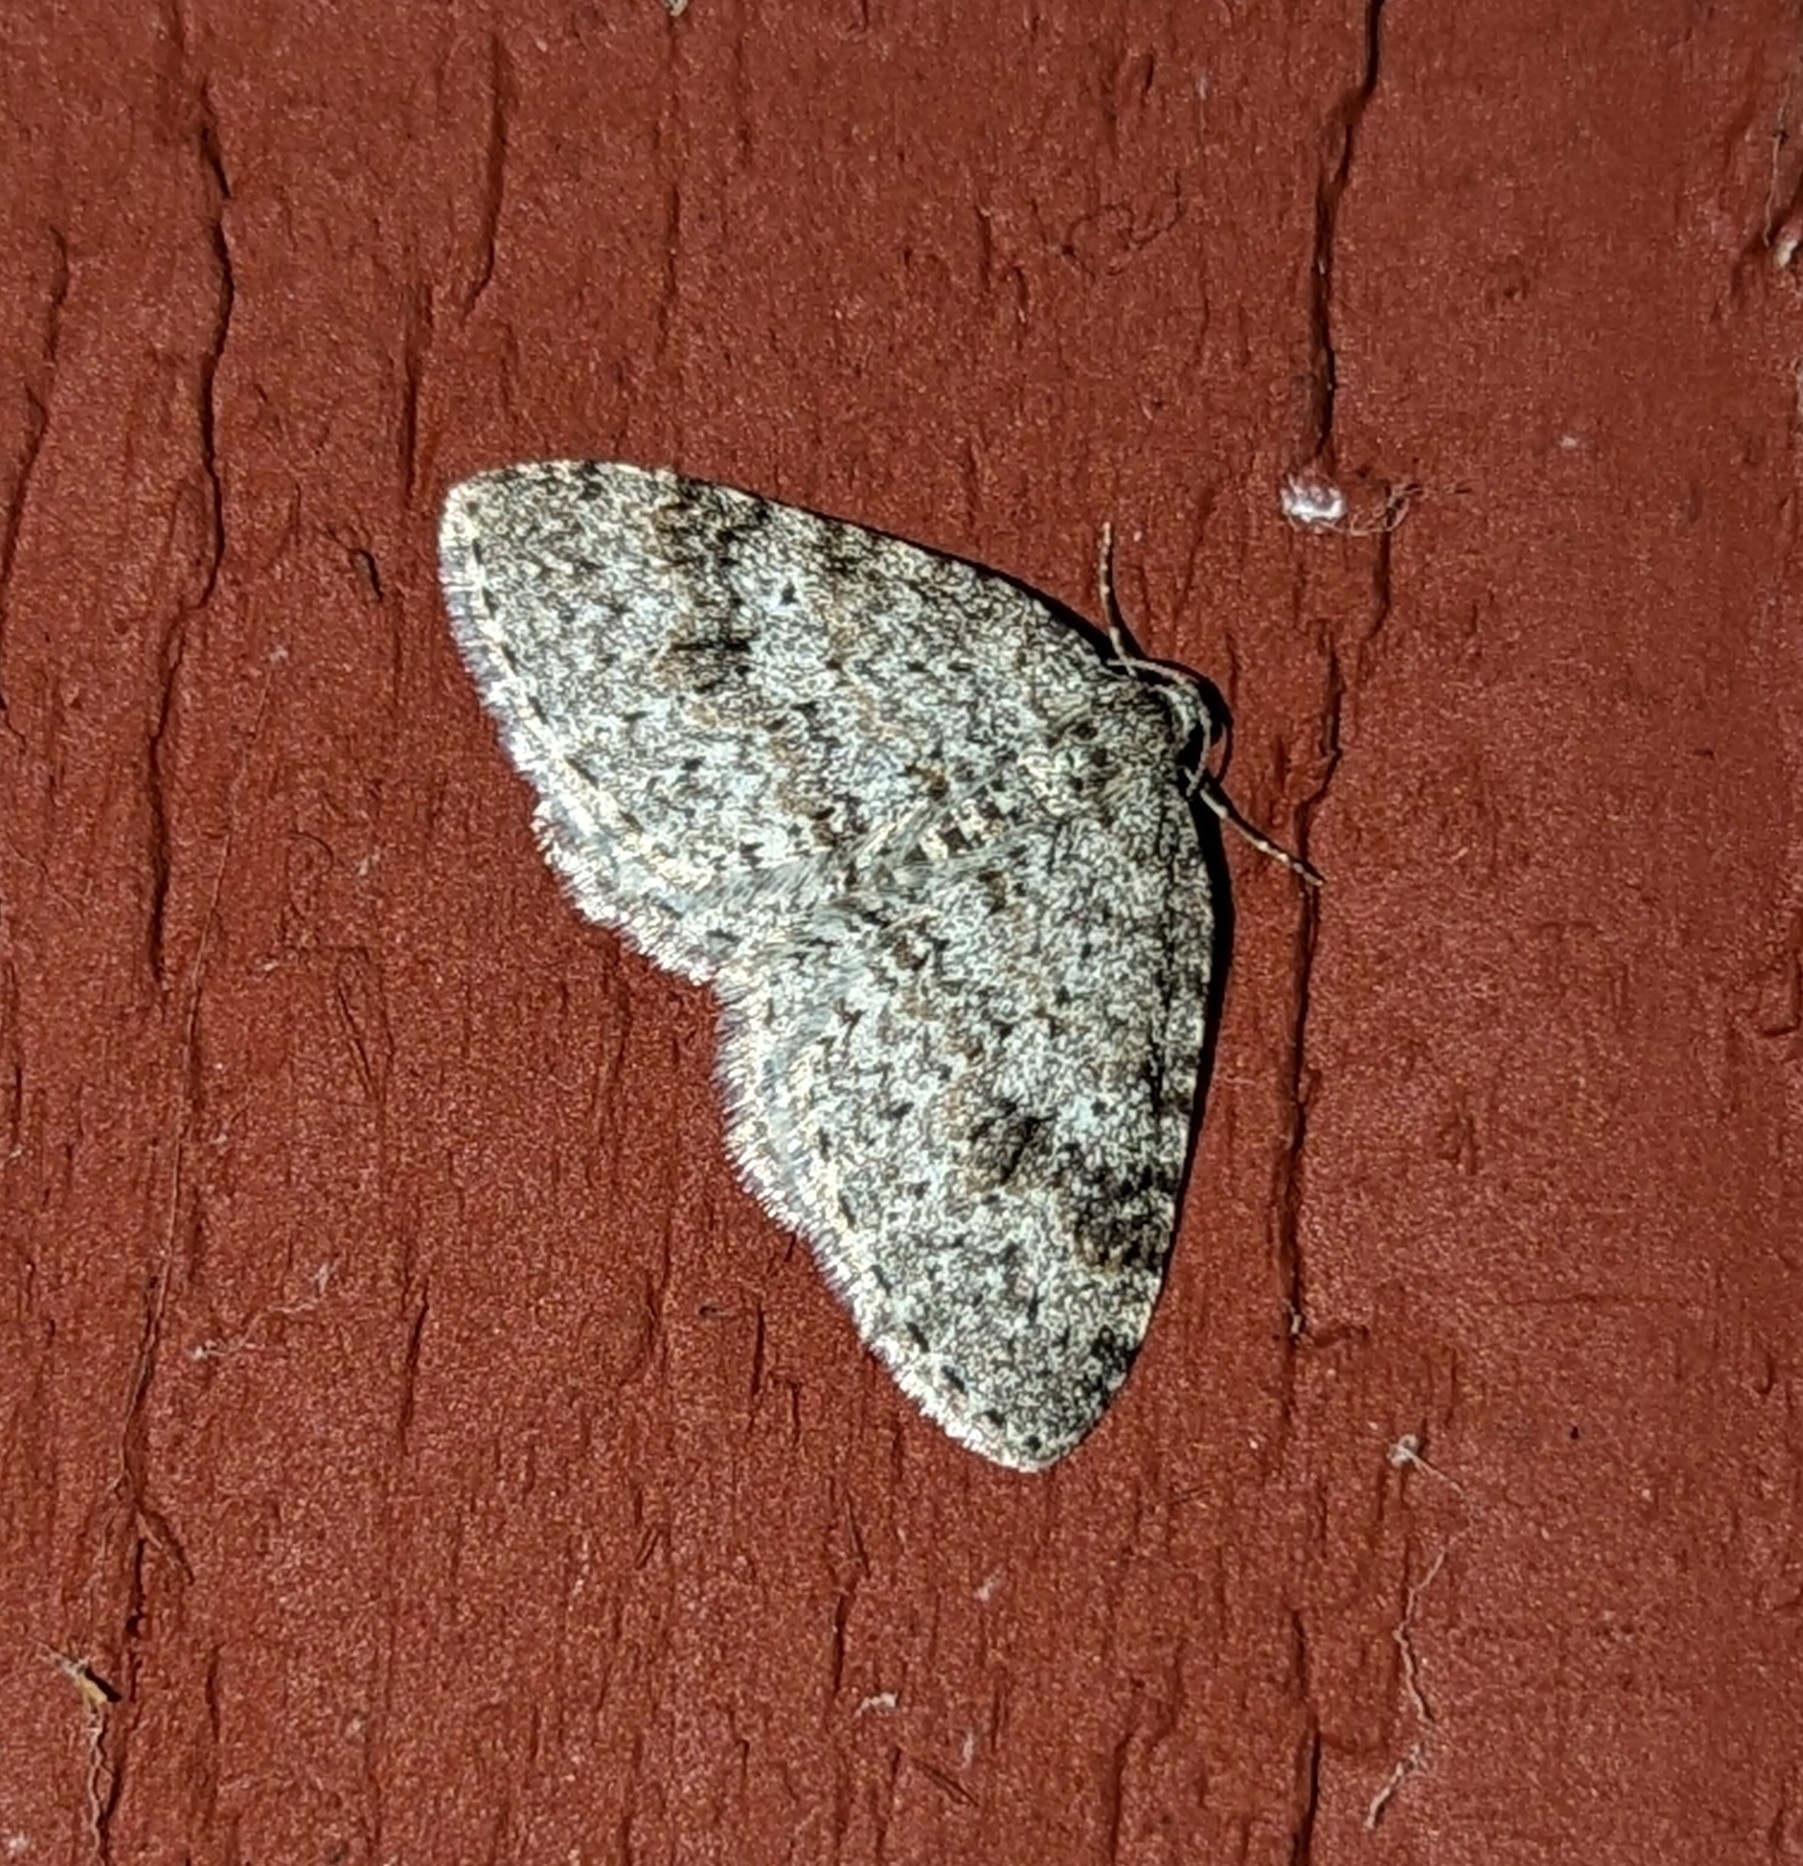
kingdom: Animalia
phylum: Arthropoda
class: Insecta
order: Lepidoptera
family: Geometridae
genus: Venusia
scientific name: Venusia pearsalli
